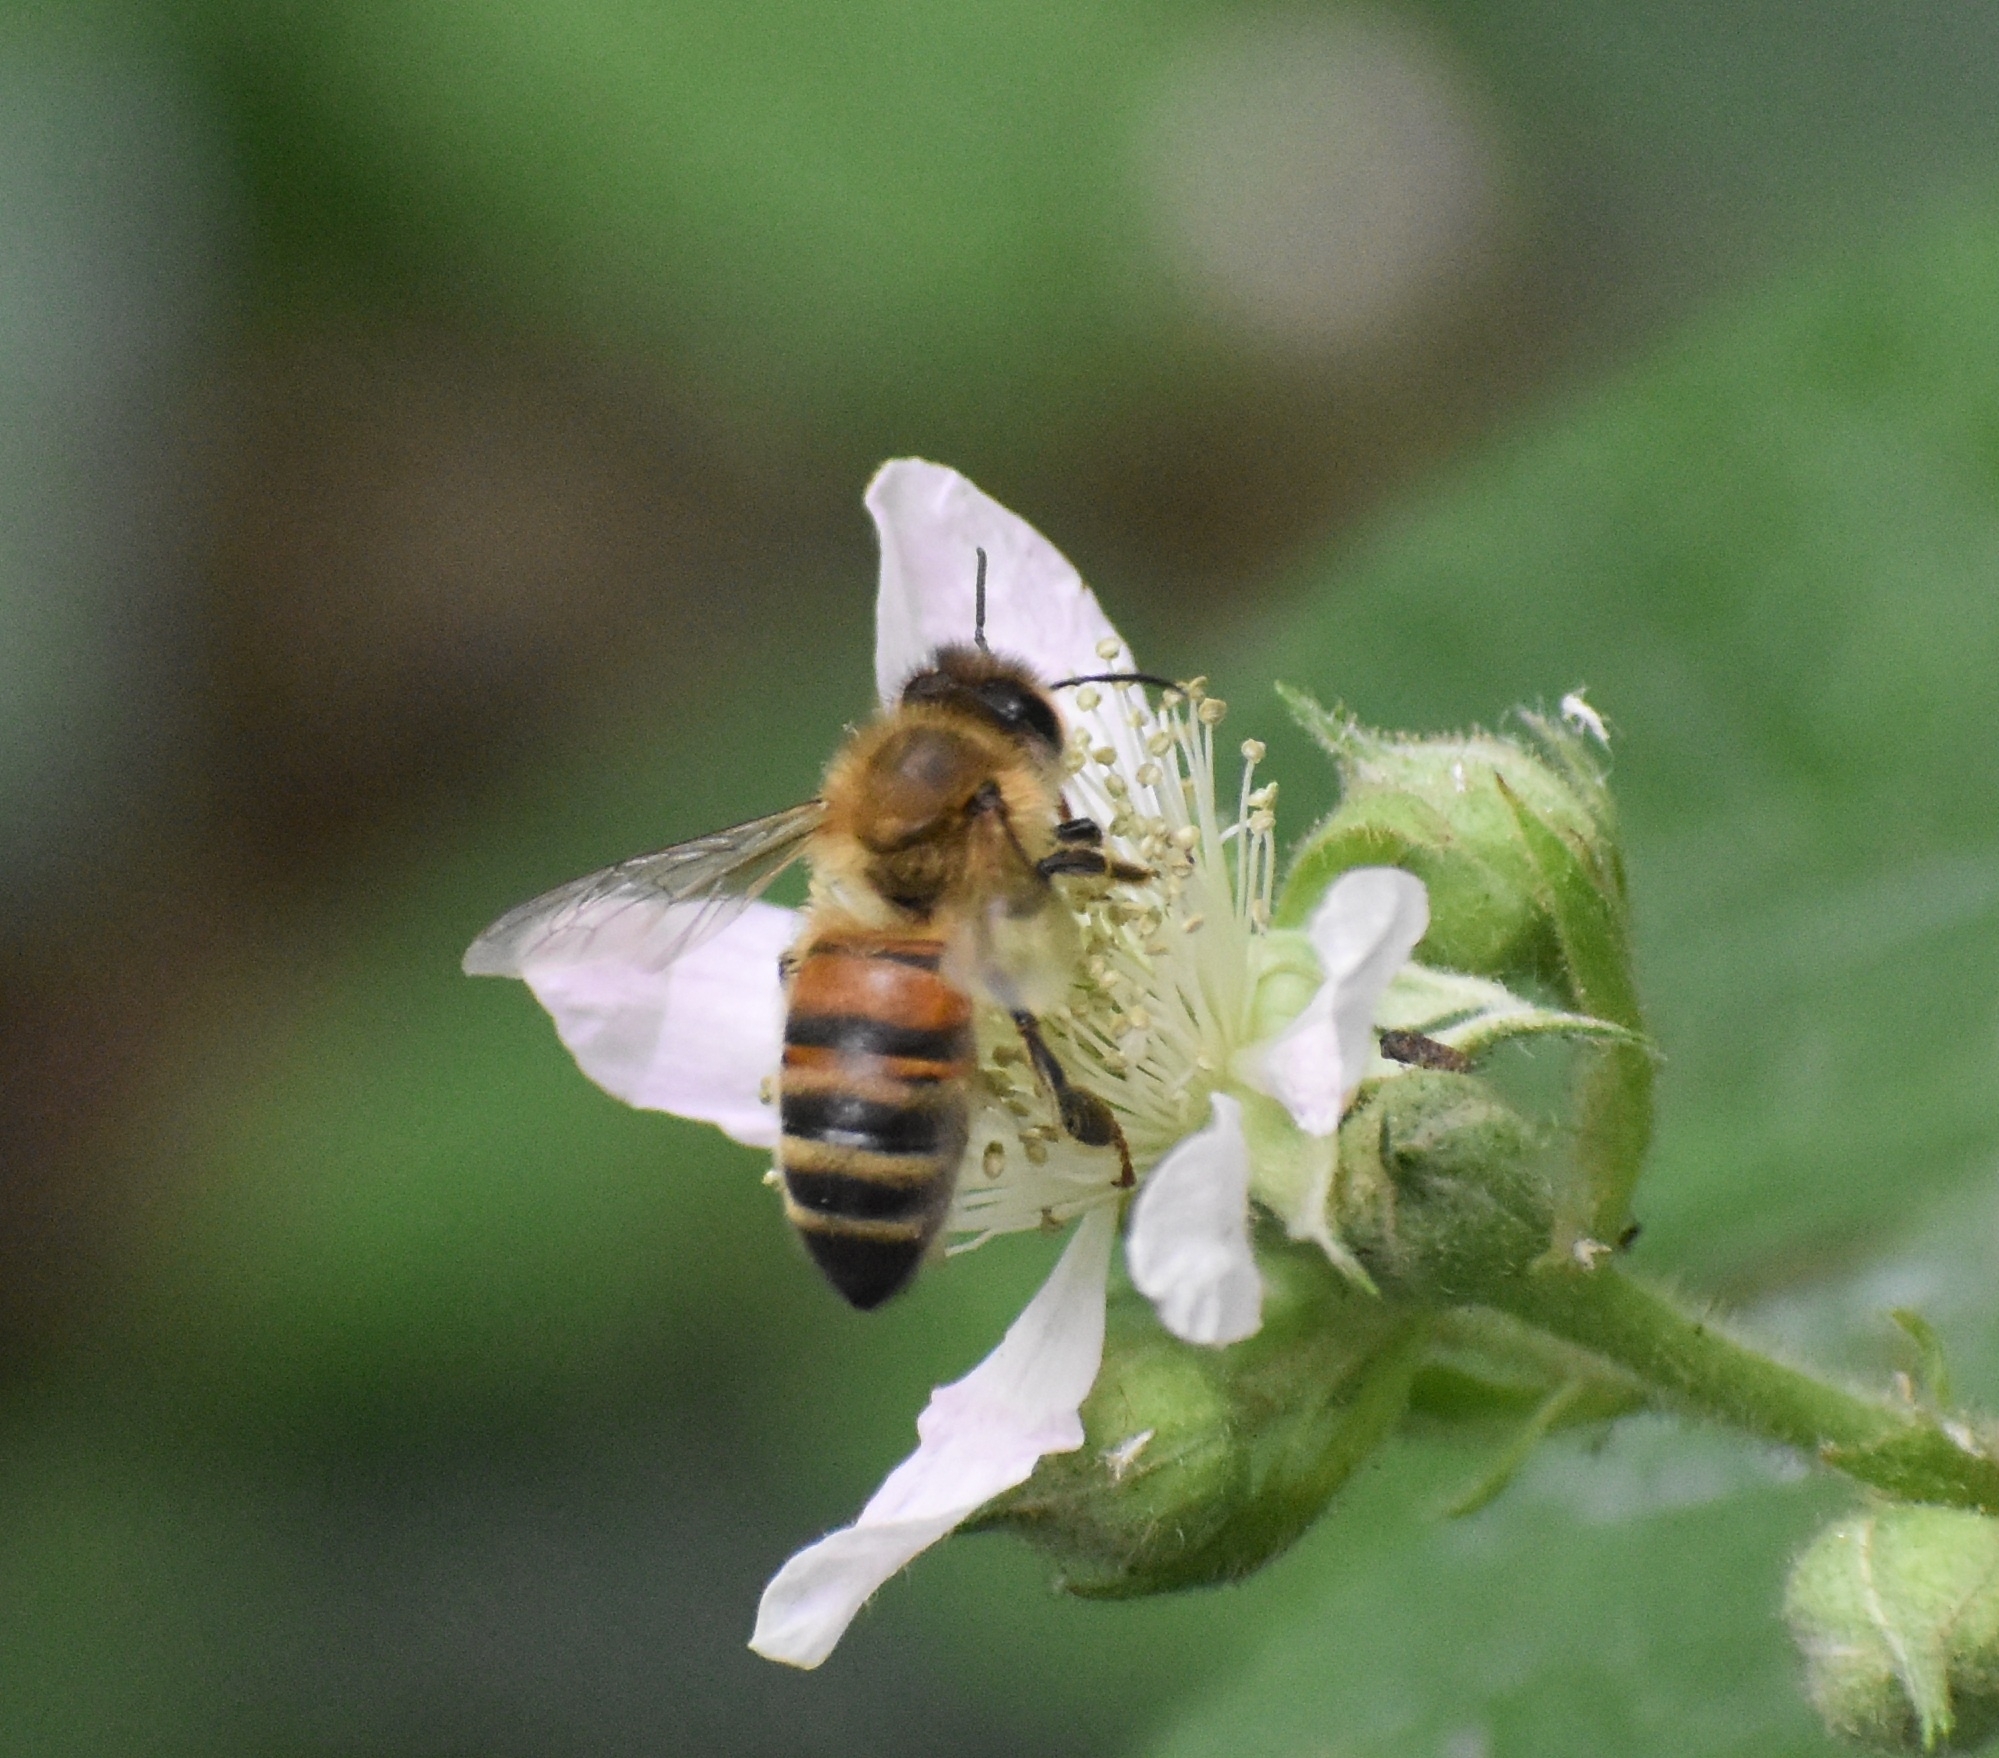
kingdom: Animalia
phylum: Arthropoda
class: Insecta
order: Hymenoptera
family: Apidae
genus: Apis
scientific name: Apis mellifera
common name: Honey bee
